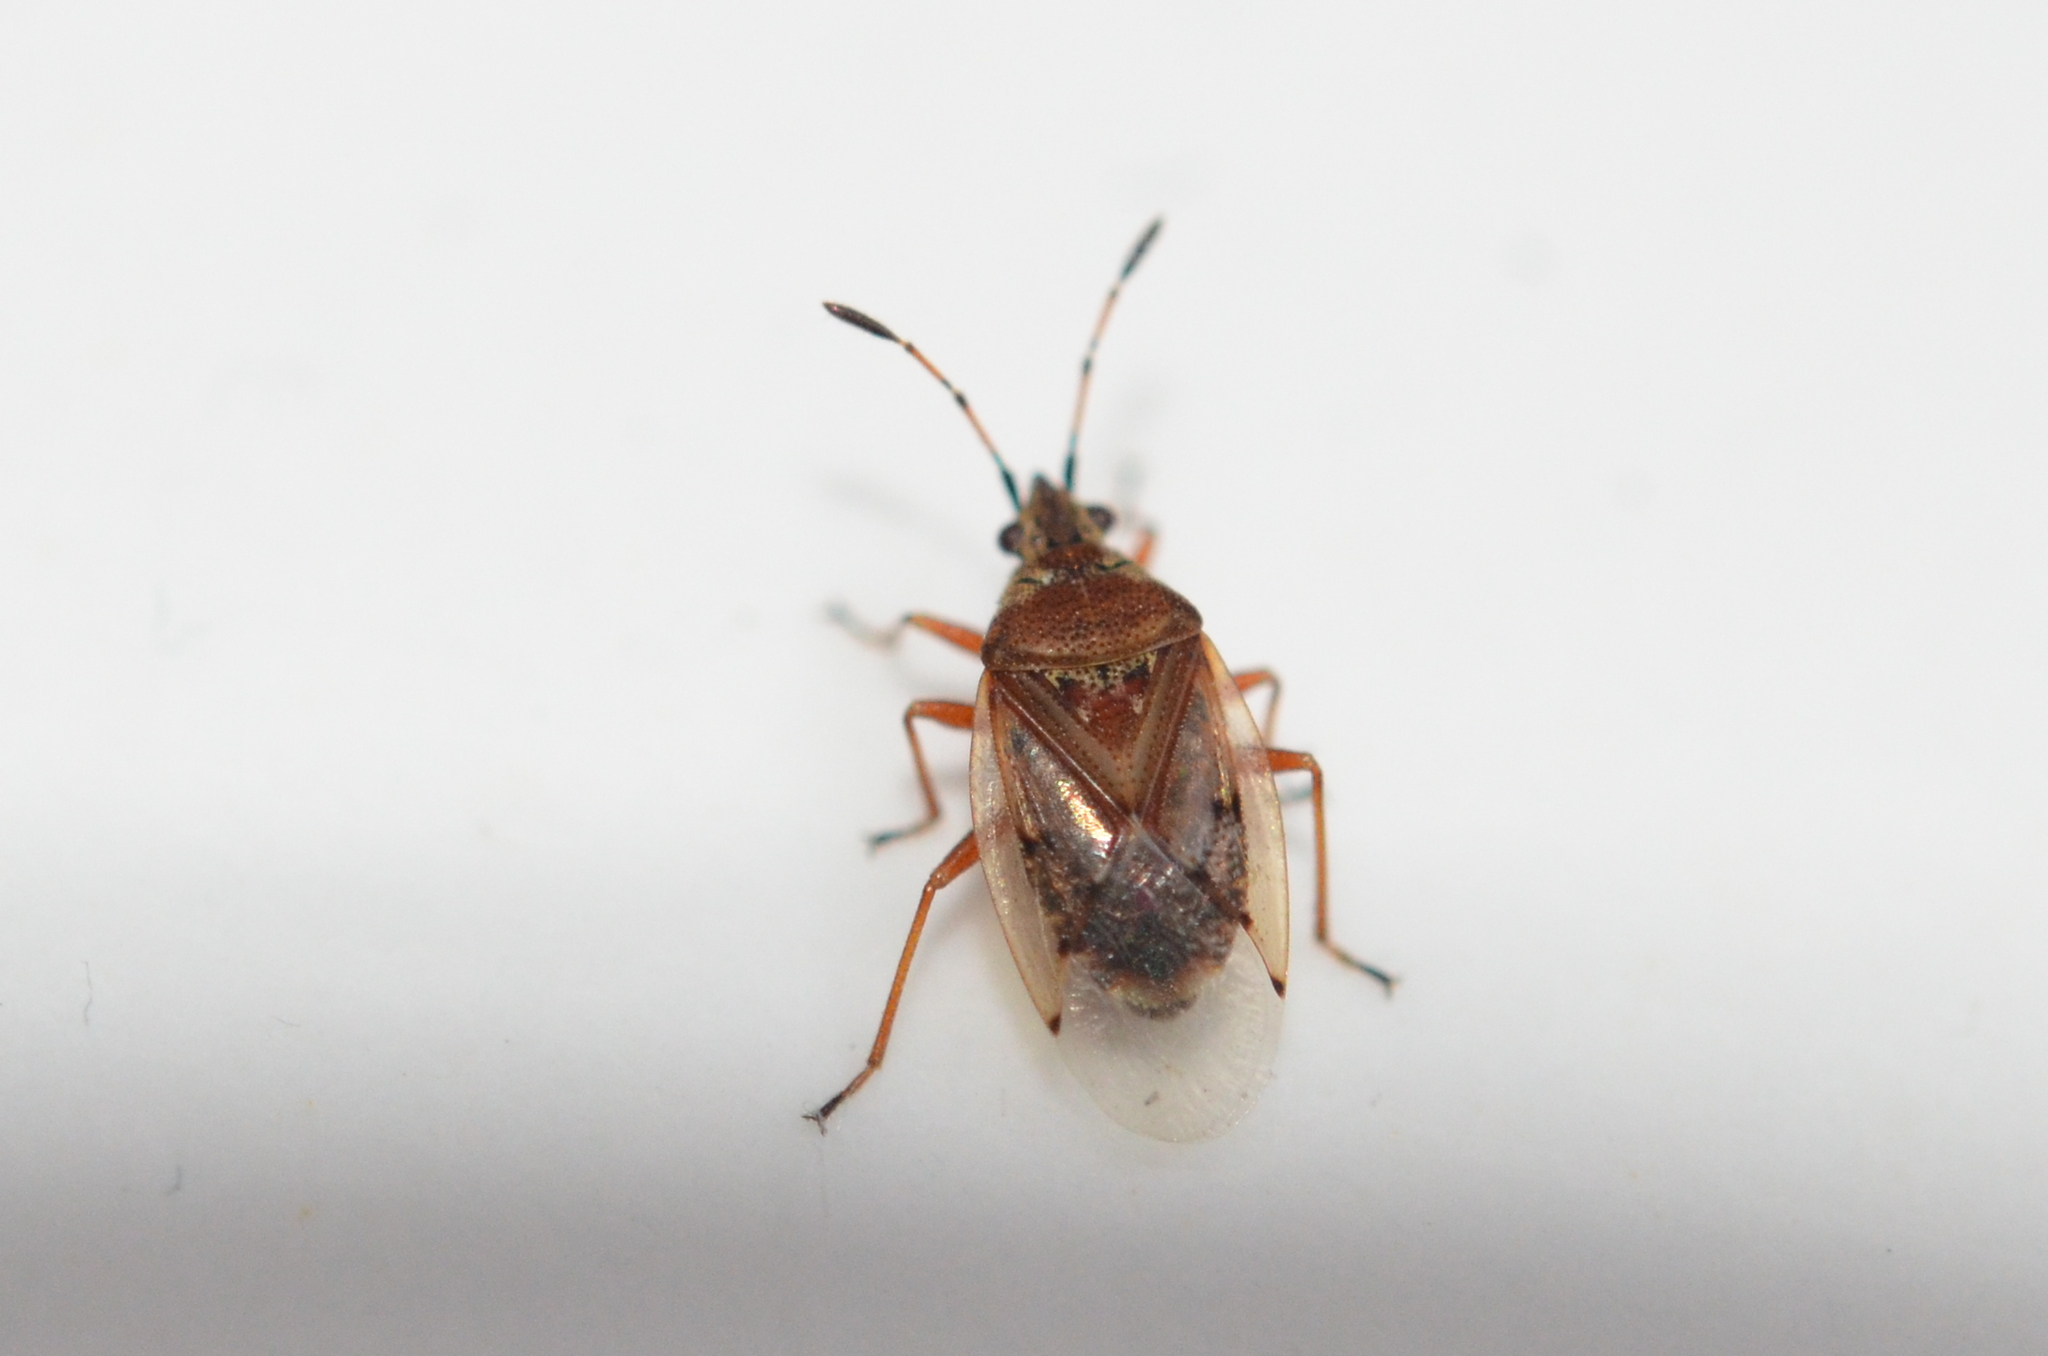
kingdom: Animalia
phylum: Arthropoda
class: Insecta
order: Hemiptera
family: Lygaeidae
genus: Kleidocerys
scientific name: Kleidocerys resedae
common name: Birch catkin bug
